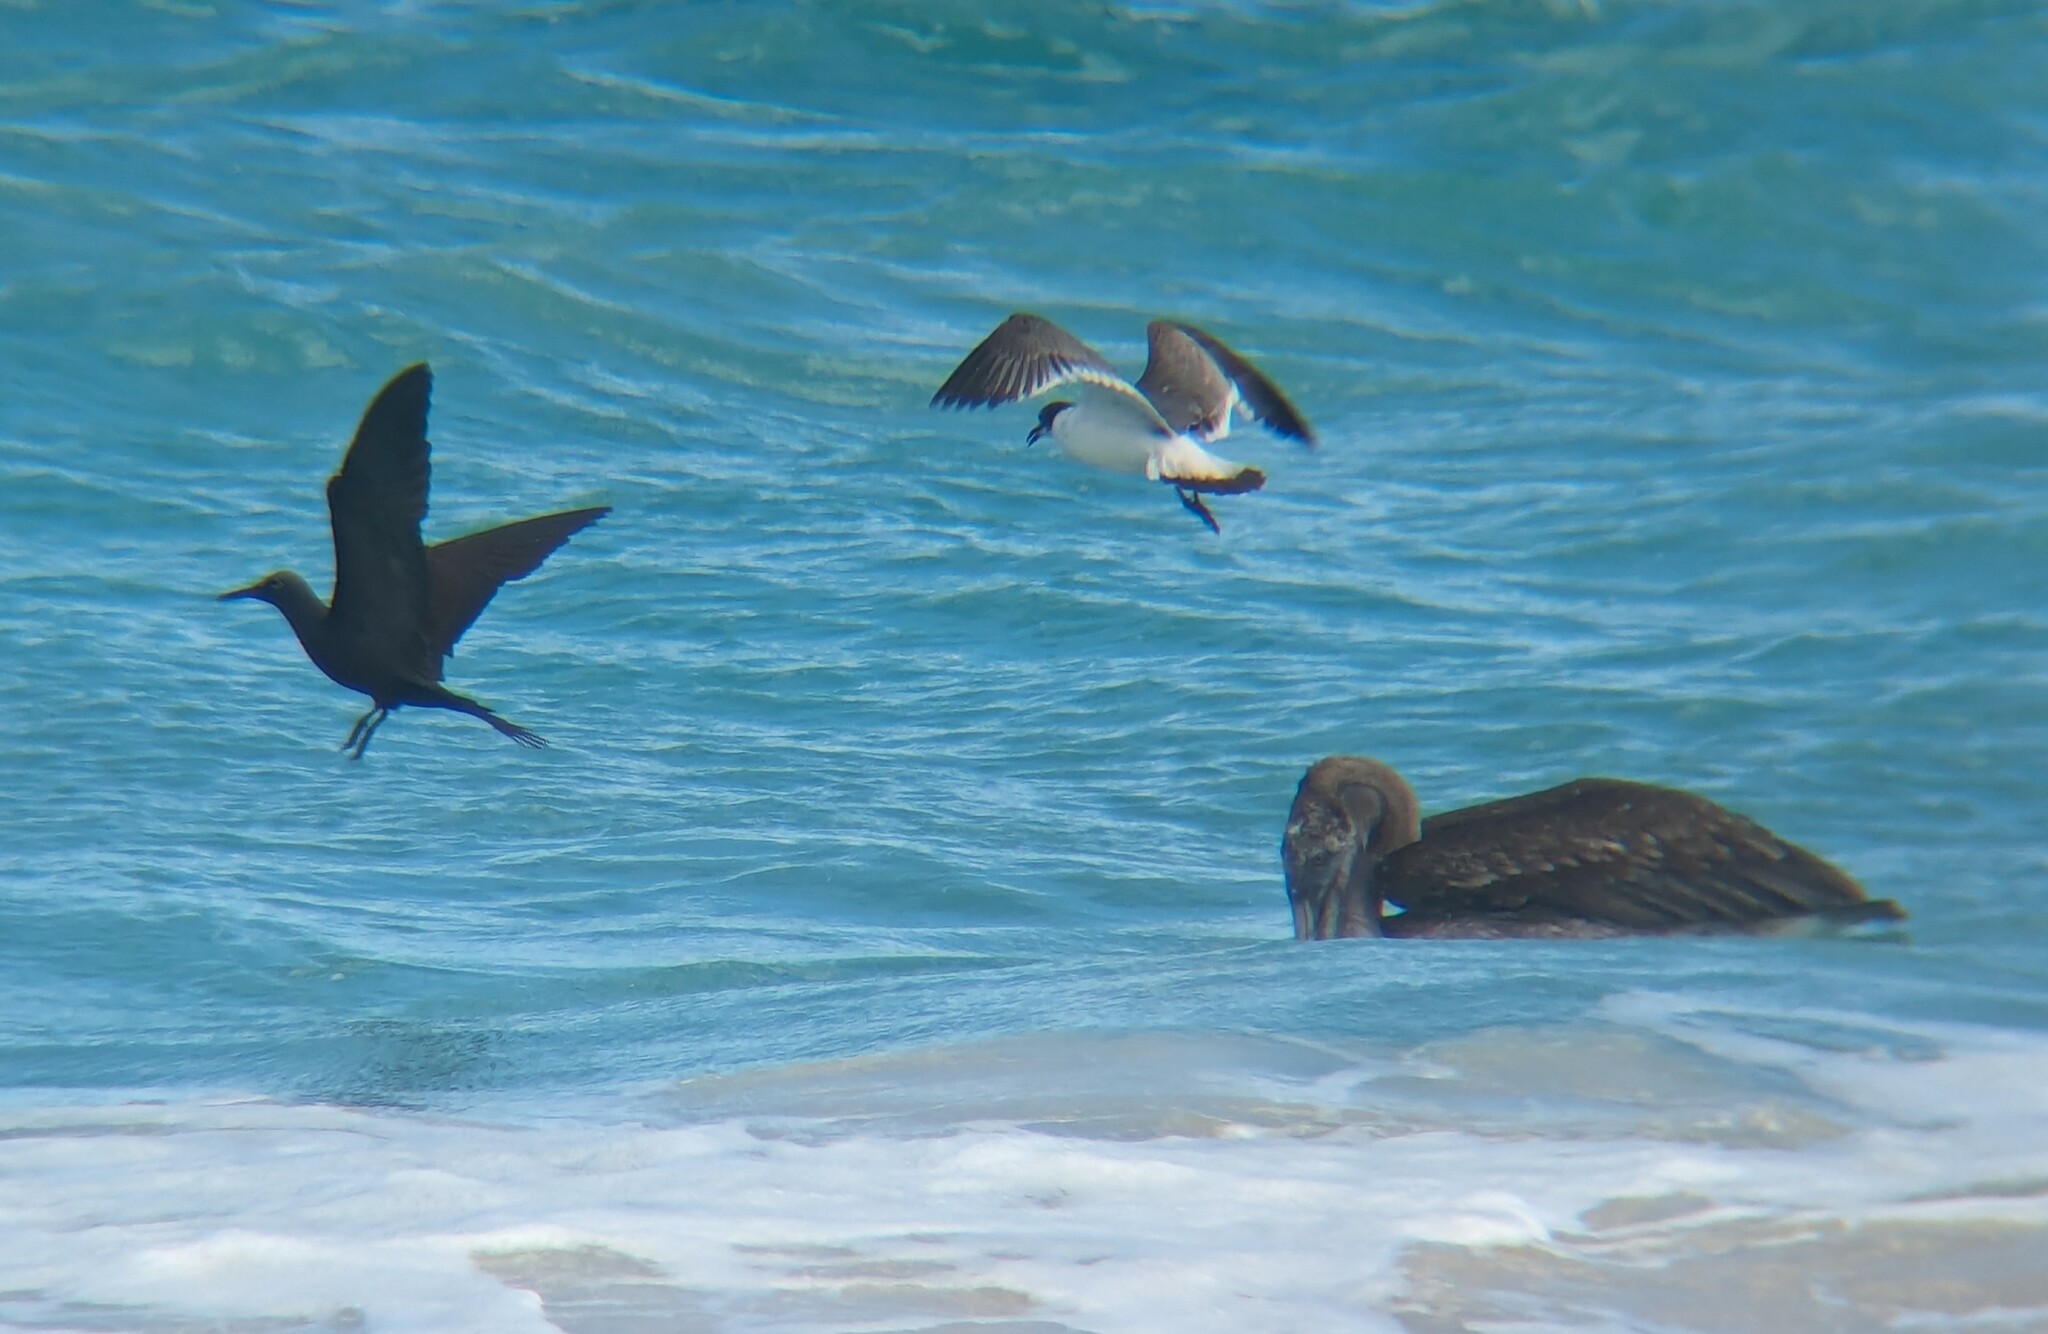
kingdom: Animalia
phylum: Chordata
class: Aves
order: Charadriiformes
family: Laridae
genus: Anous
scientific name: Anous stolidus
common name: Brown noddy
